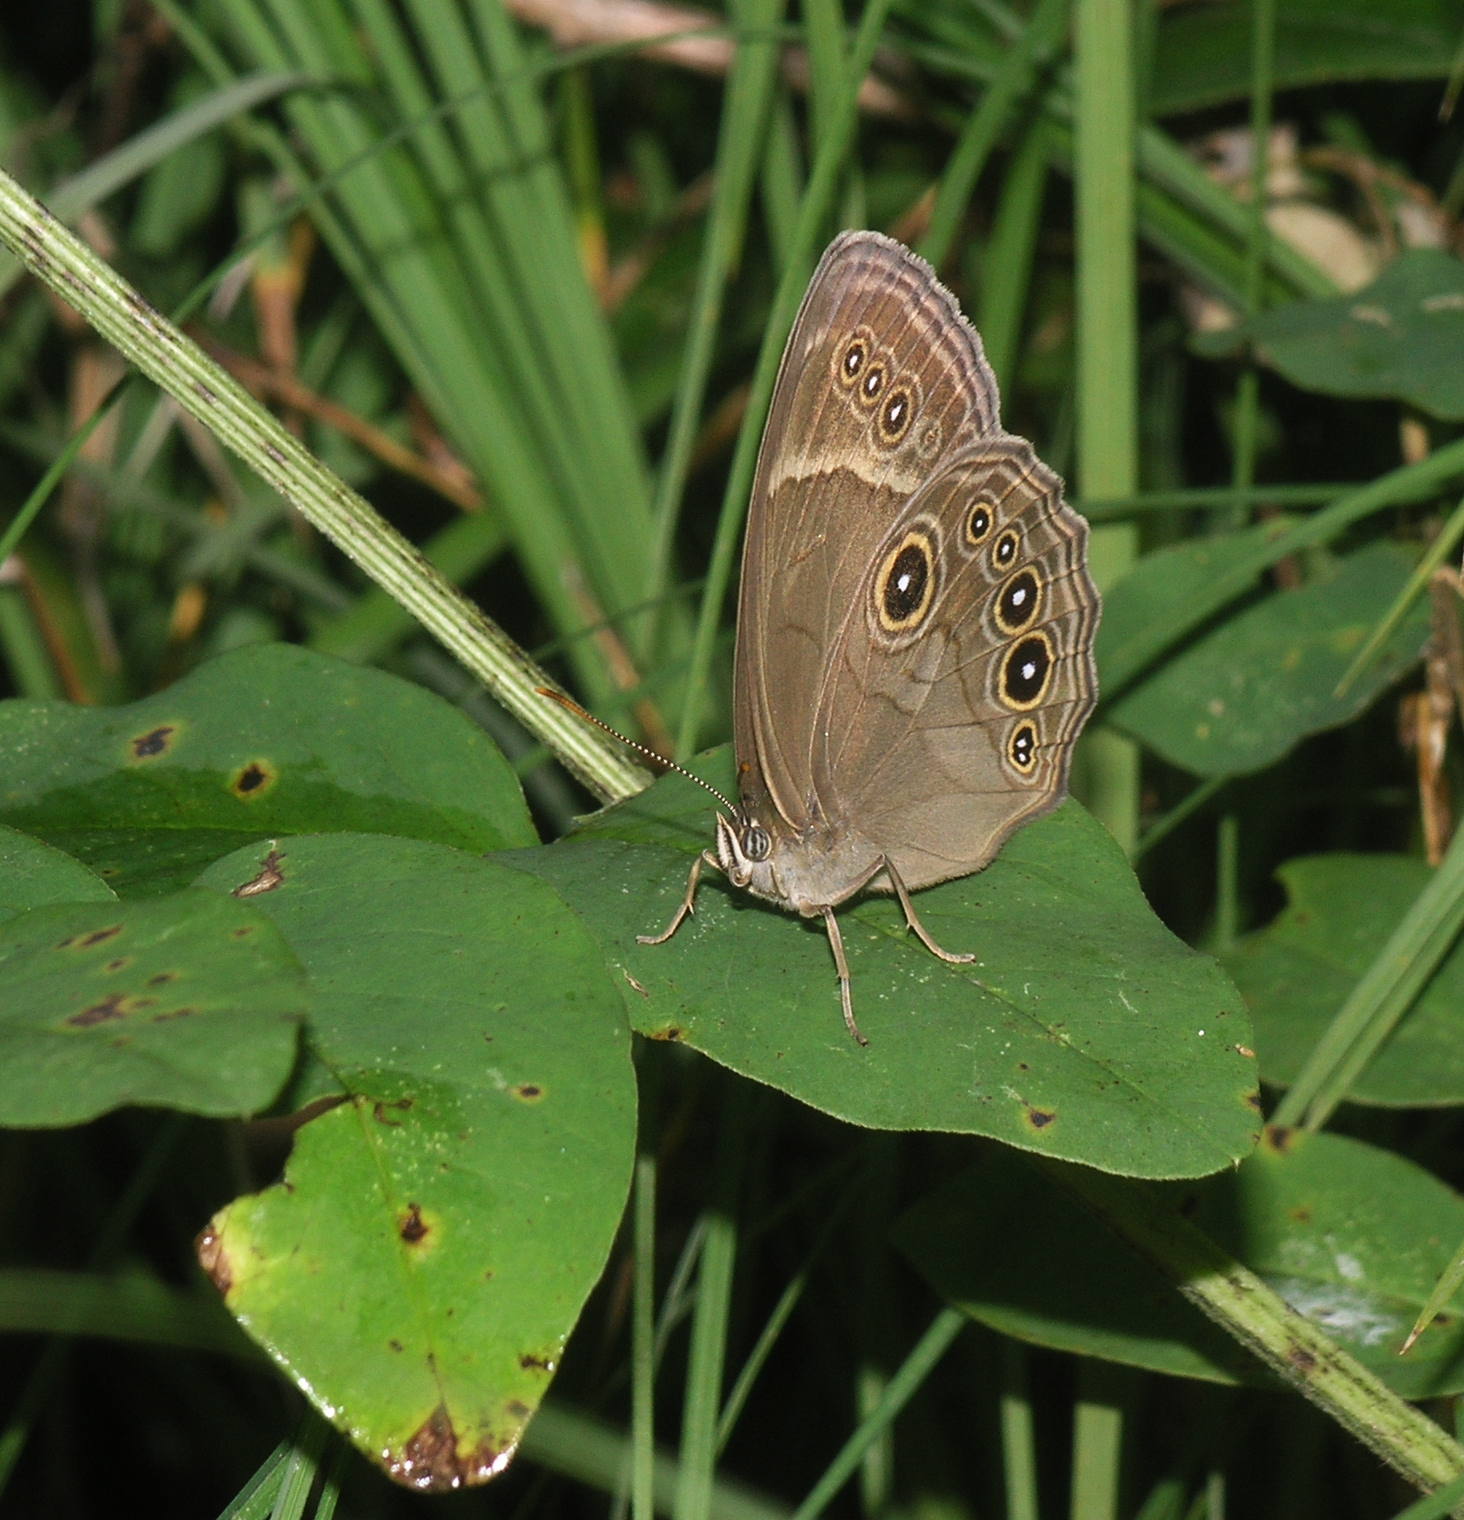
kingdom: Animalia
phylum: Arthropoda
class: Insecta
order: Lepidoptera
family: Nymphalidae
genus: Lethe
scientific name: Lethe marginalis
